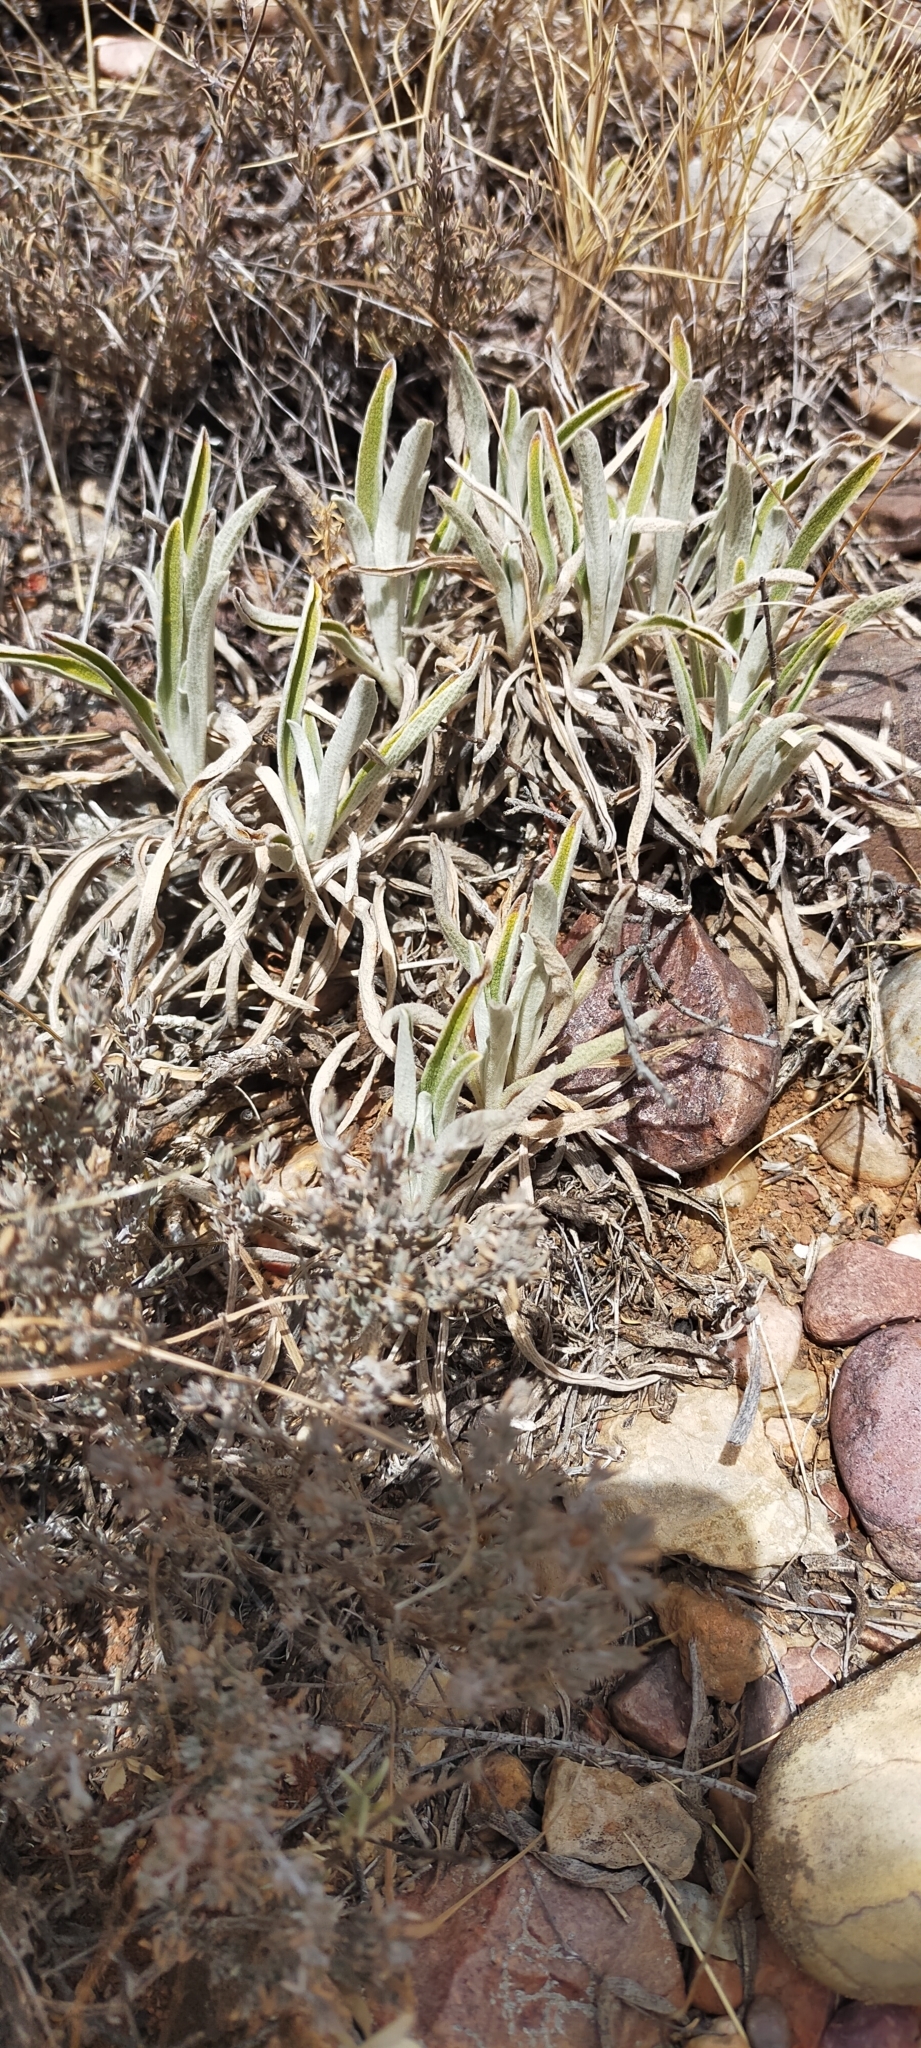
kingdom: Plantae
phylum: Tracheophyta
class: Magnoliopsida
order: Lamiales
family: Lamiaceae
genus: Phlomis
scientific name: Phlomis lychnitis
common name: Lampwickplant
